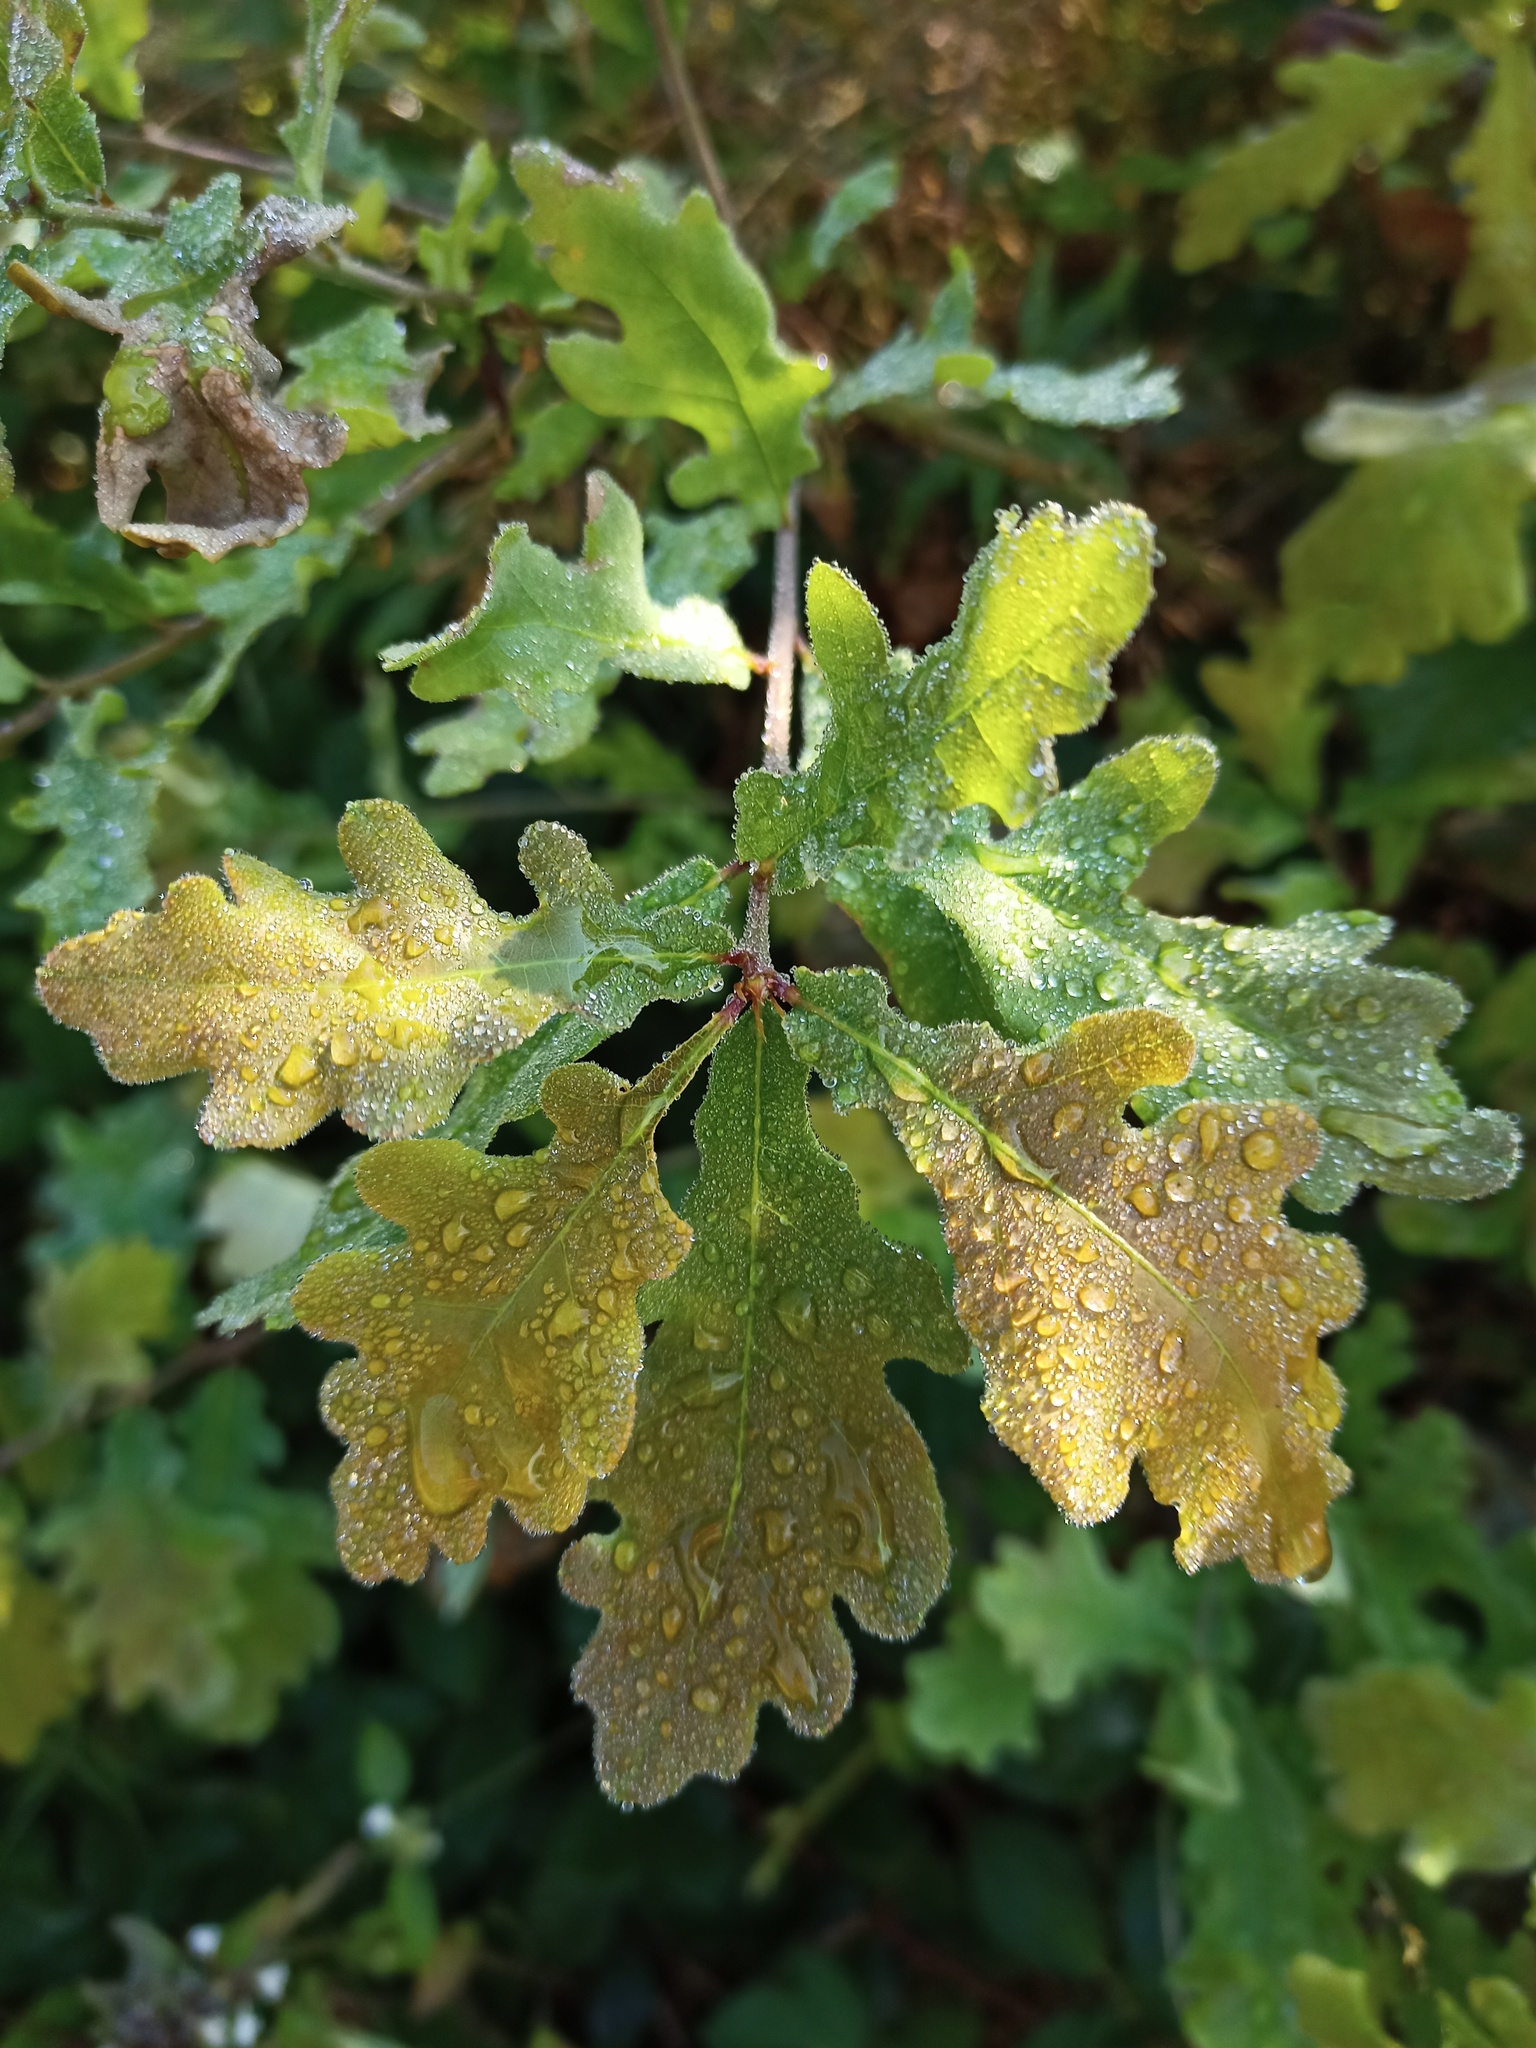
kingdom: Plantae
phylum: Tracheophyta
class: Magnoliopsida
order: Fagales
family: Fagaceae
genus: Quercus
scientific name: Quercus robur
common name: Pedunculate oak
